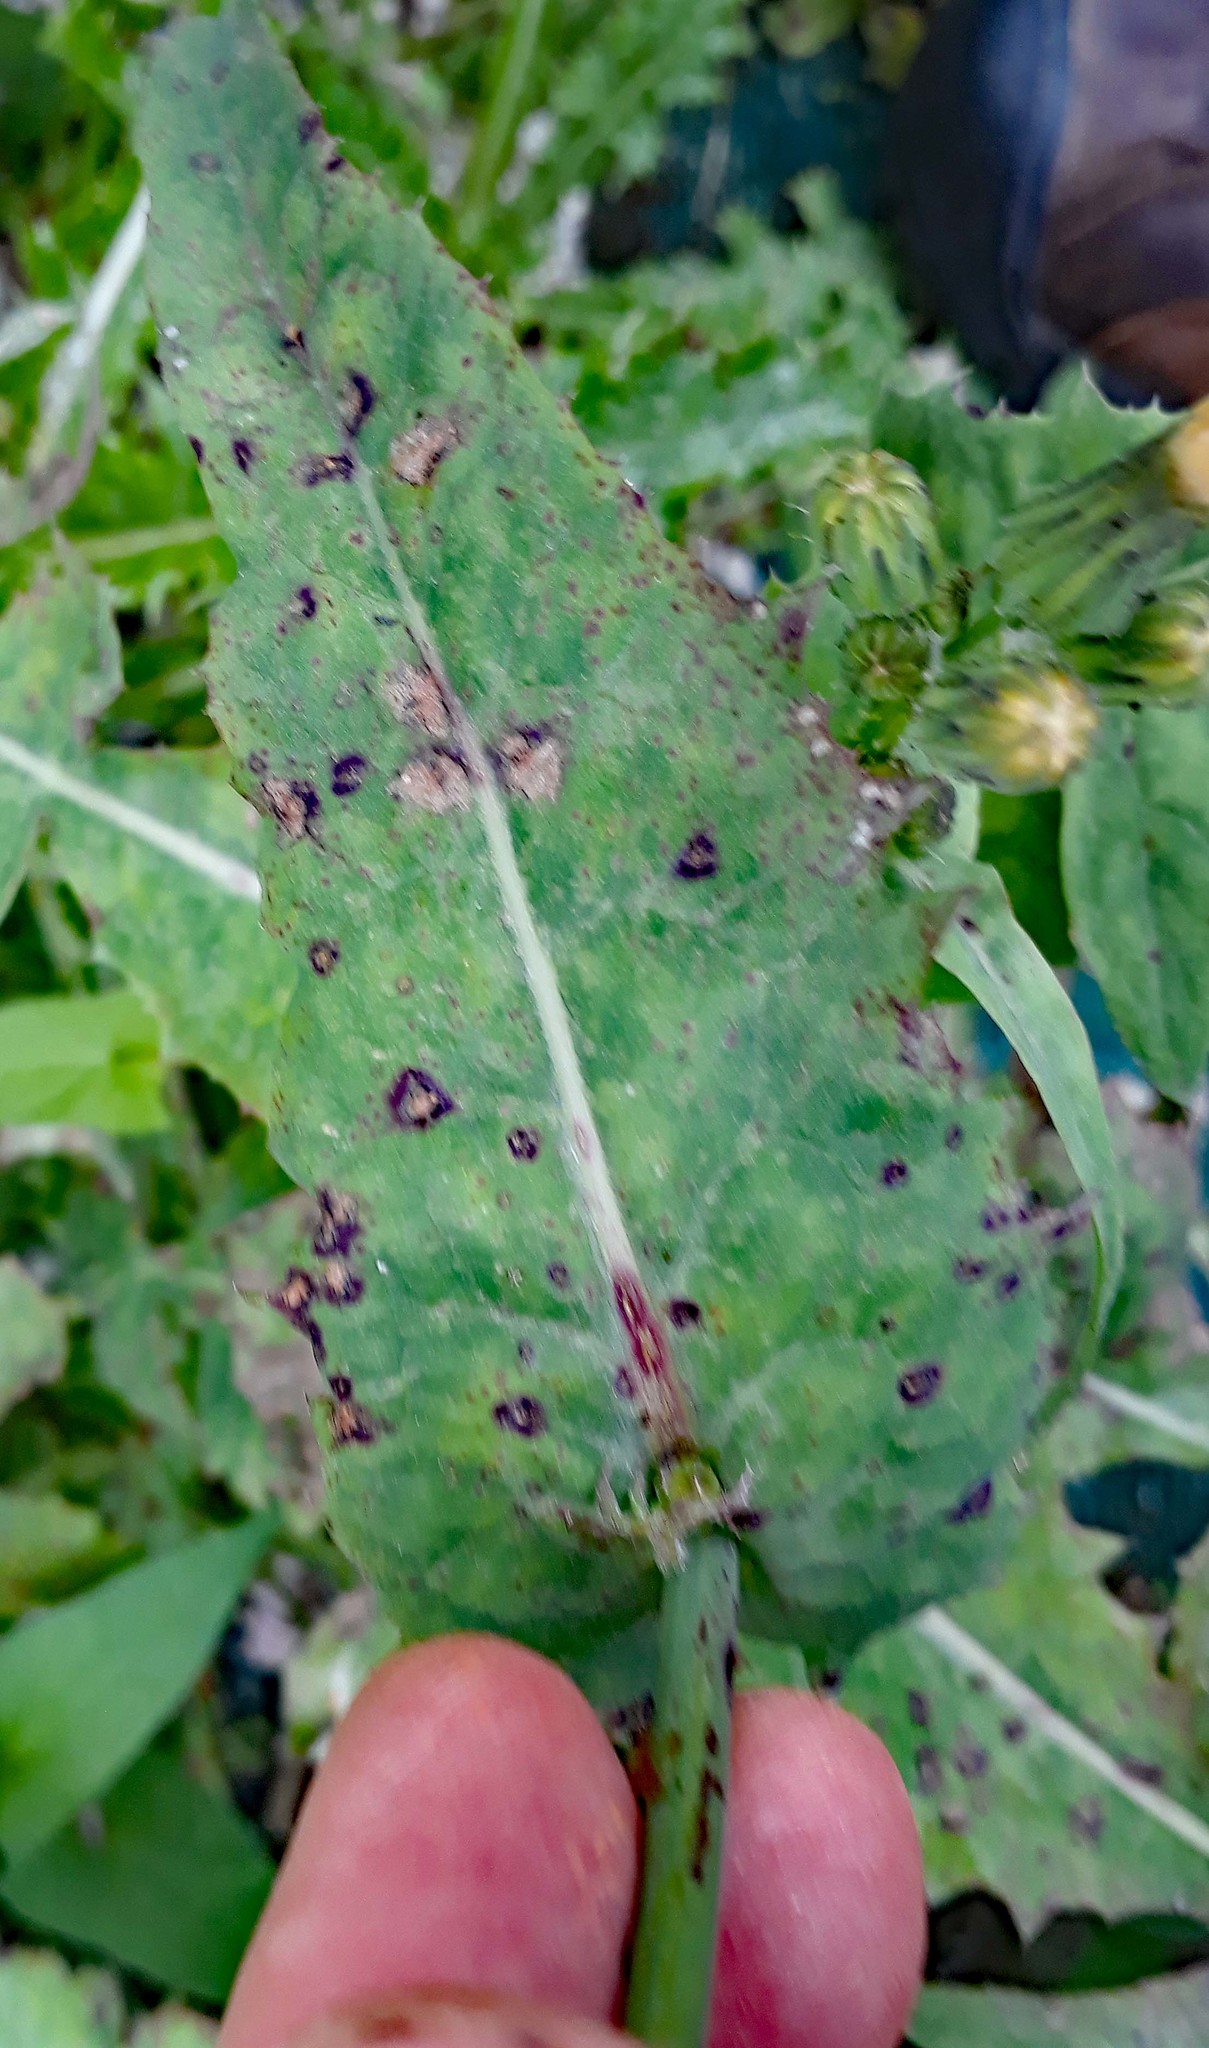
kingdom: Fungi
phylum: Basidiomycota
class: Pucciniomycetes
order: Pucciniales
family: Pucciniaceae
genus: Peristemma
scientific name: Peristemma pseudosphaeria
